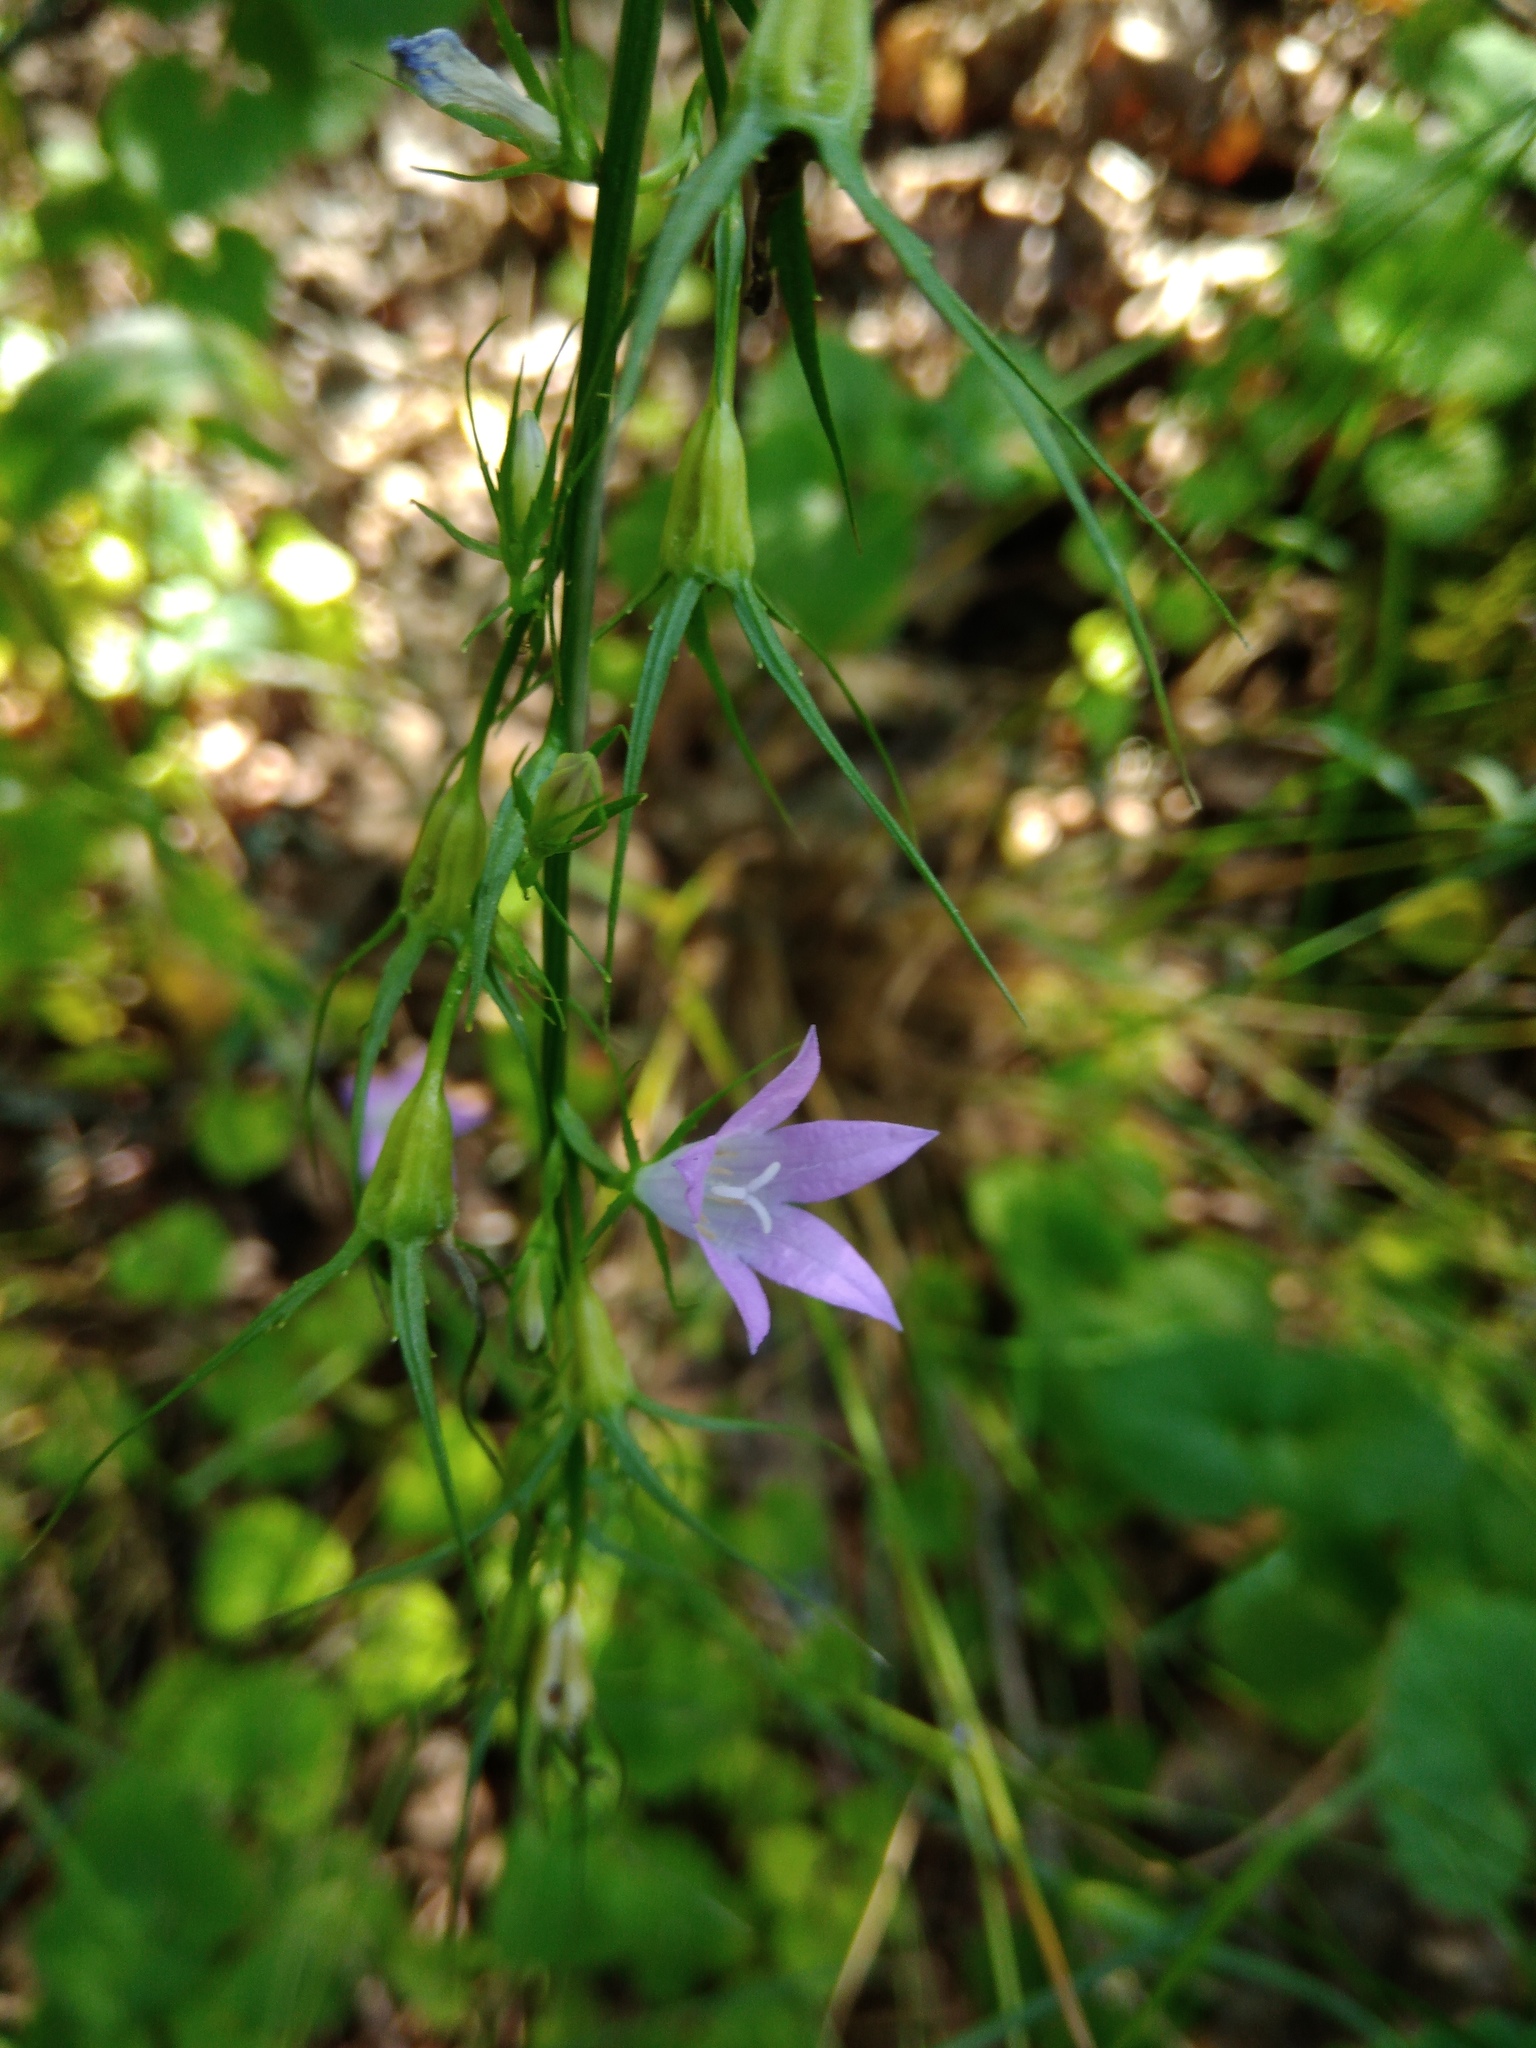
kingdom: Plantae
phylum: Tracheophyta
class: Magnoliopsida
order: Asterales
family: Campanulaceae
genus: Campanula
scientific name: Campanula rapunculus
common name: Rampion bellflower
